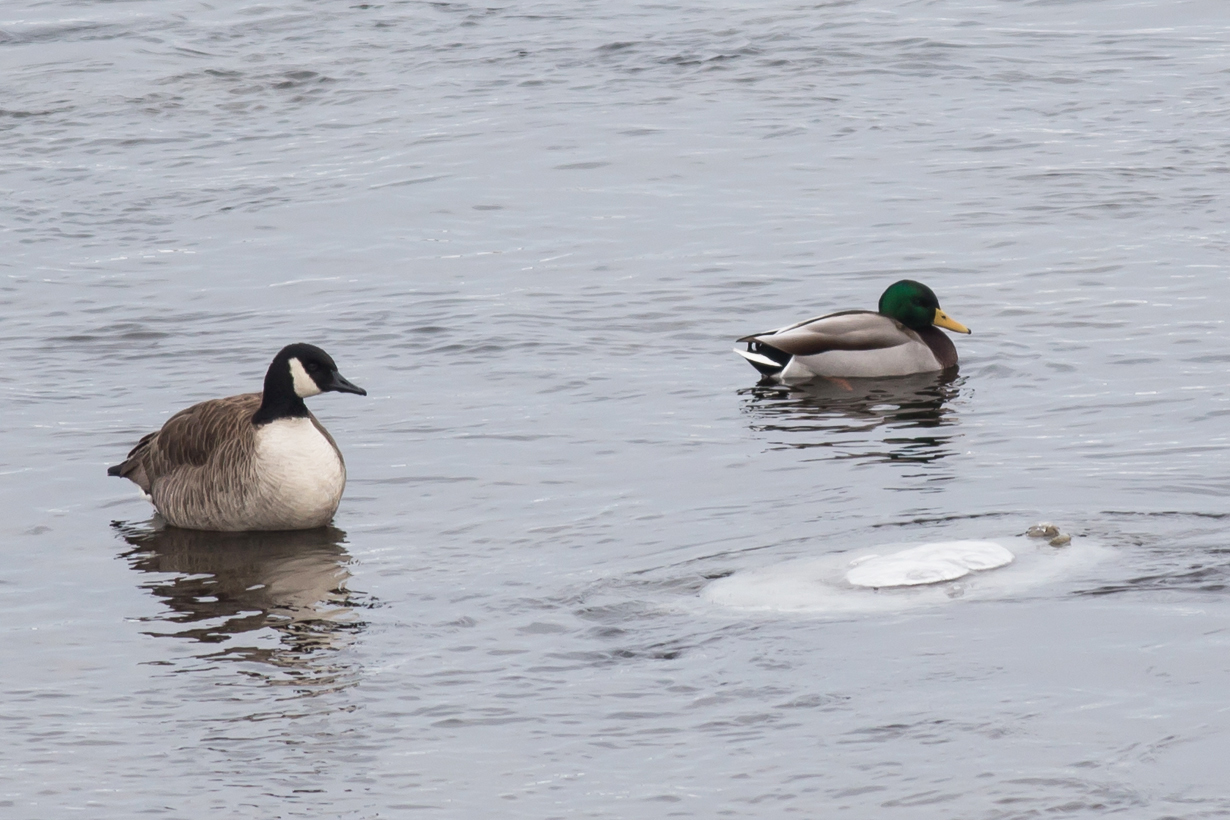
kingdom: Animalia
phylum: Chordata
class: Aves
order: Anseriformes
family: Anatidae
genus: Anas
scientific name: Anas platyrhynchos
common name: Mallard
